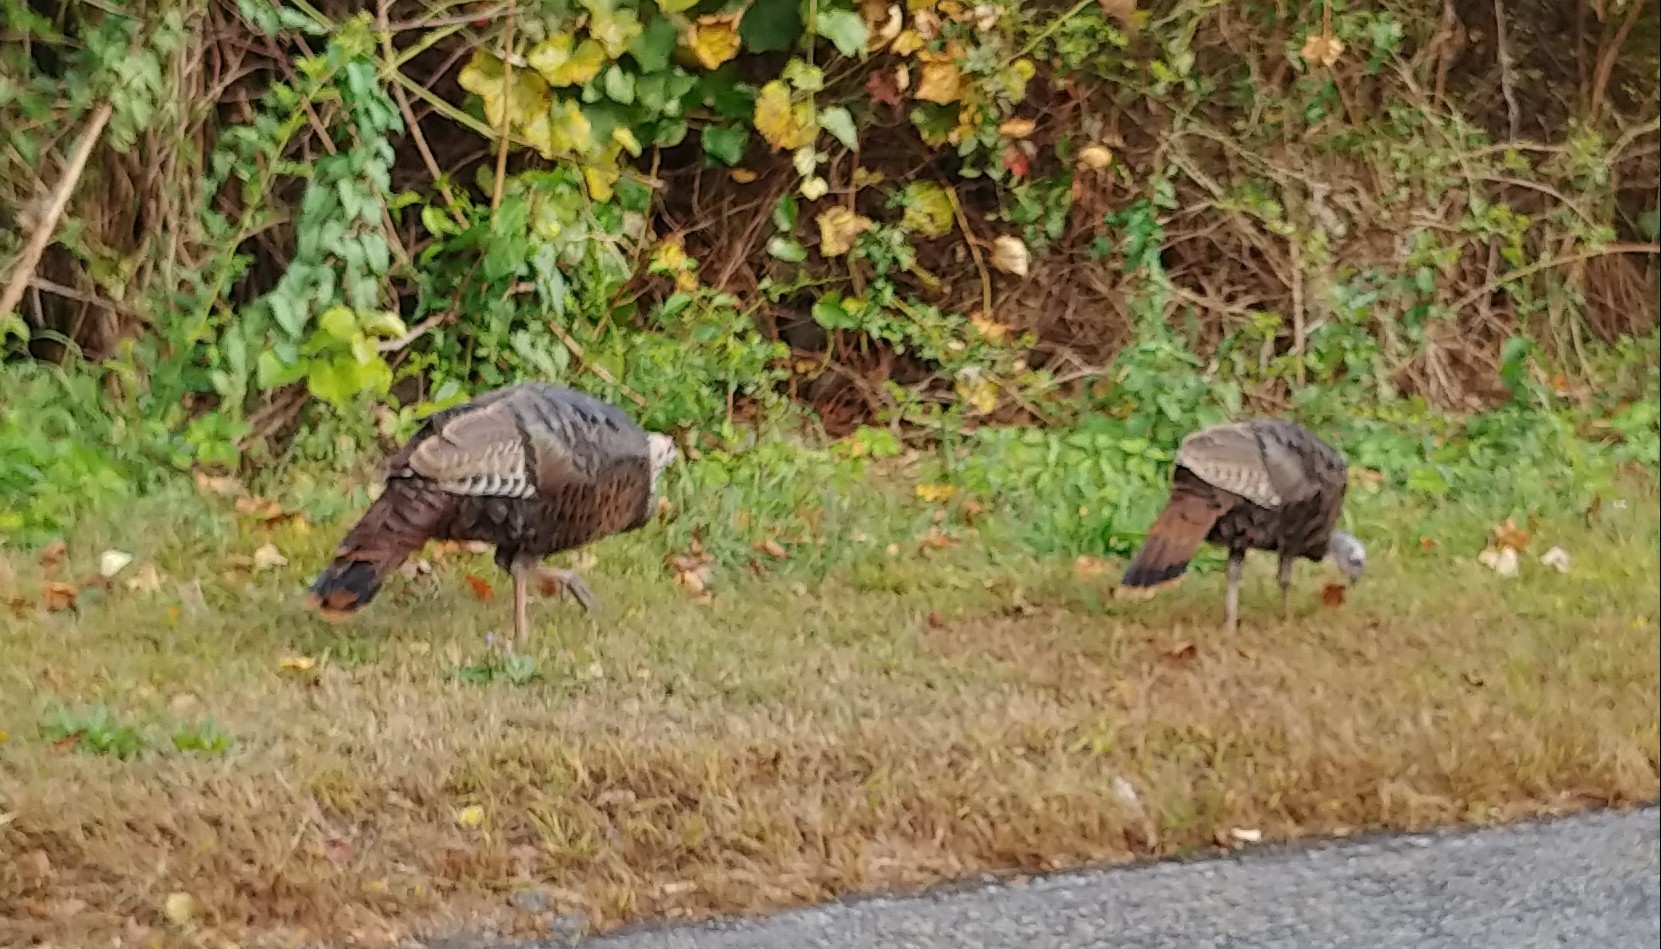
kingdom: Animalia
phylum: Chordata
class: Aves
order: Galliformes
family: Phasianidae
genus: Meleagris
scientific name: Meleagris gallopavo
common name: Wild turkey
